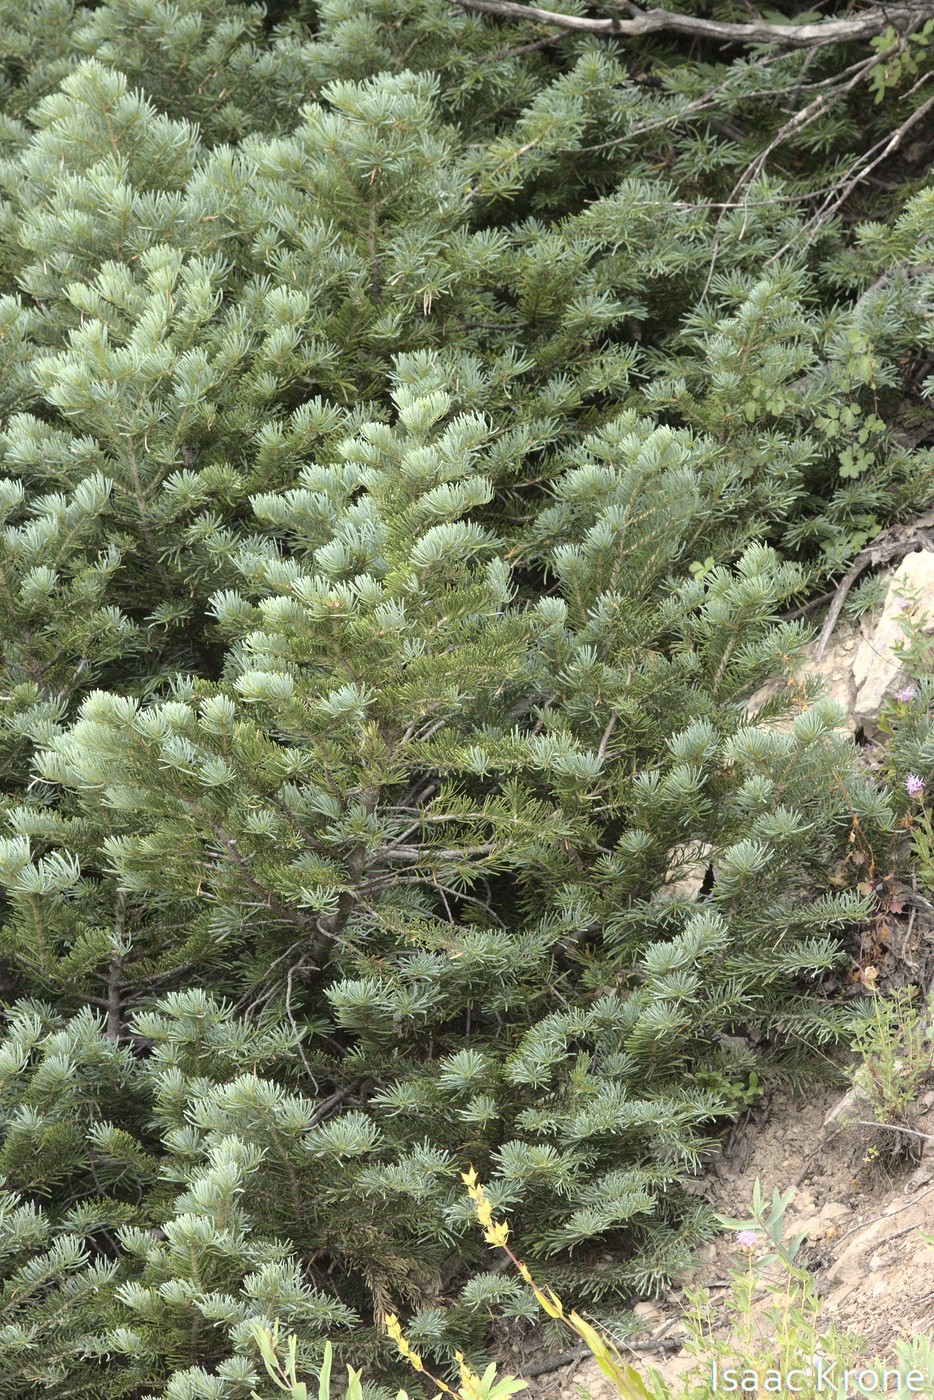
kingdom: Plantae
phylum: Tracheophyta
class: Pinopsida
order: Pinales
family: Pinaceae
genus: Abies
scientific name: Abies lasiocarpa
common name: Subalpine fir
